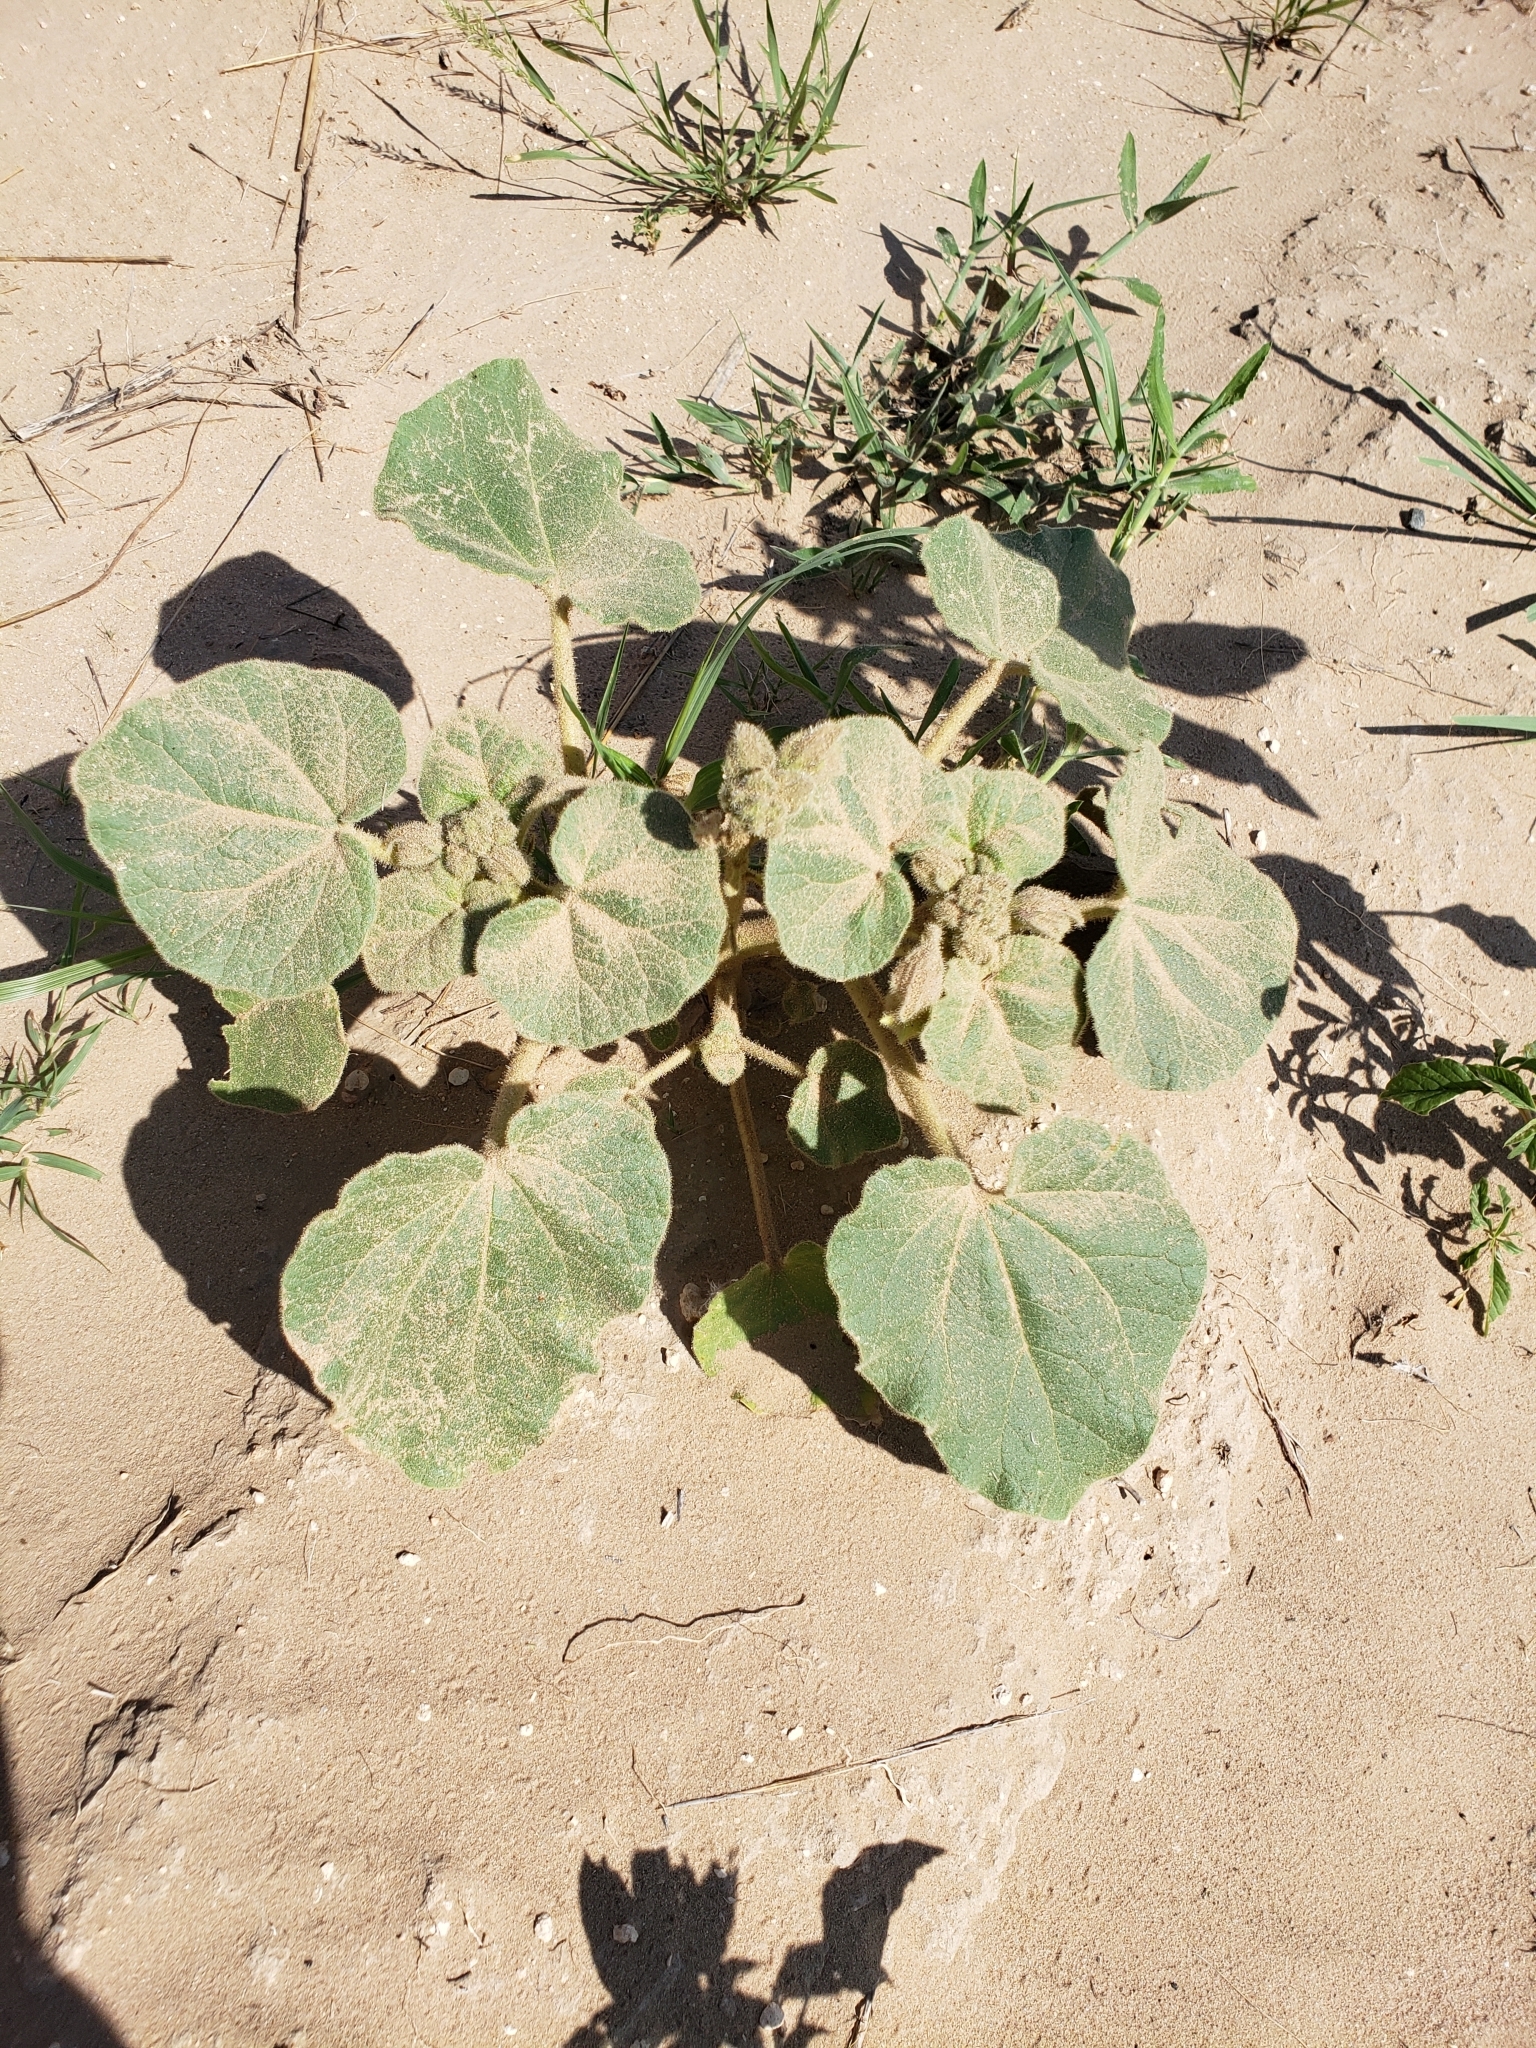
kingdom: Plantae
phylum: Tracheophyta
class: Magnoliopsida
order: Lamiales
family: Martyniaceae
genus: Proboscidea
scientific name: Proboscidea louisianica
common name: Elephant tusks
